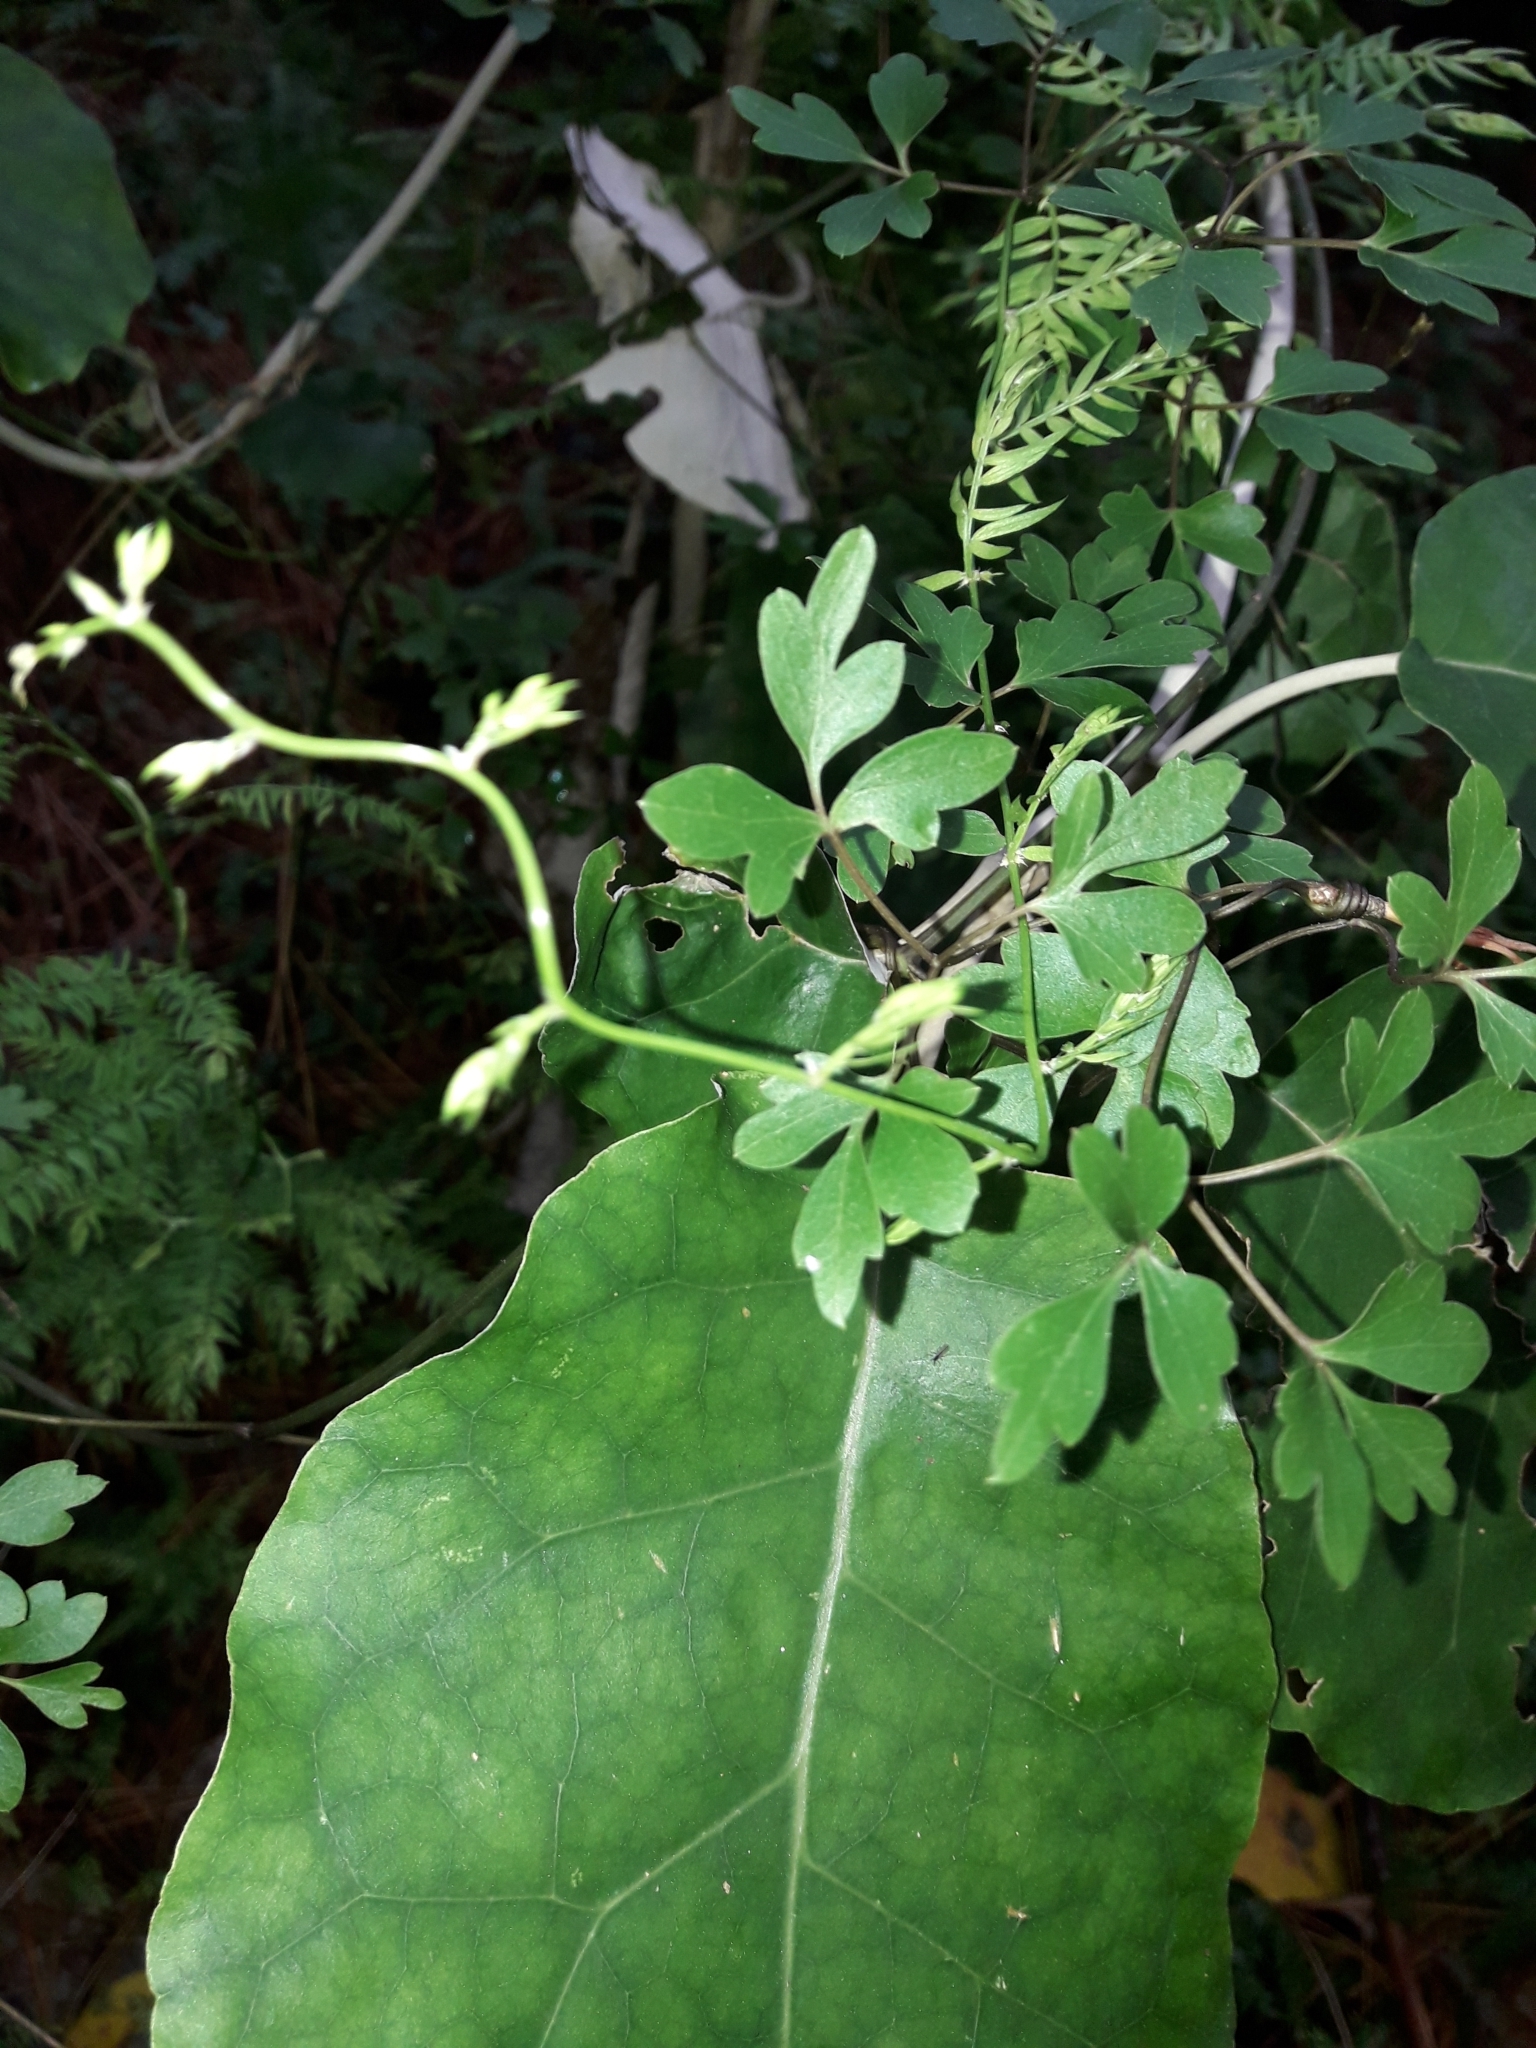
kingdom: Plantae
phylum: Tracheophyta
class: Magnoliopsida
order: Ranunculales
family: Ranunculaceae
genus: Clematis
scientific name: Clematis forsteri
